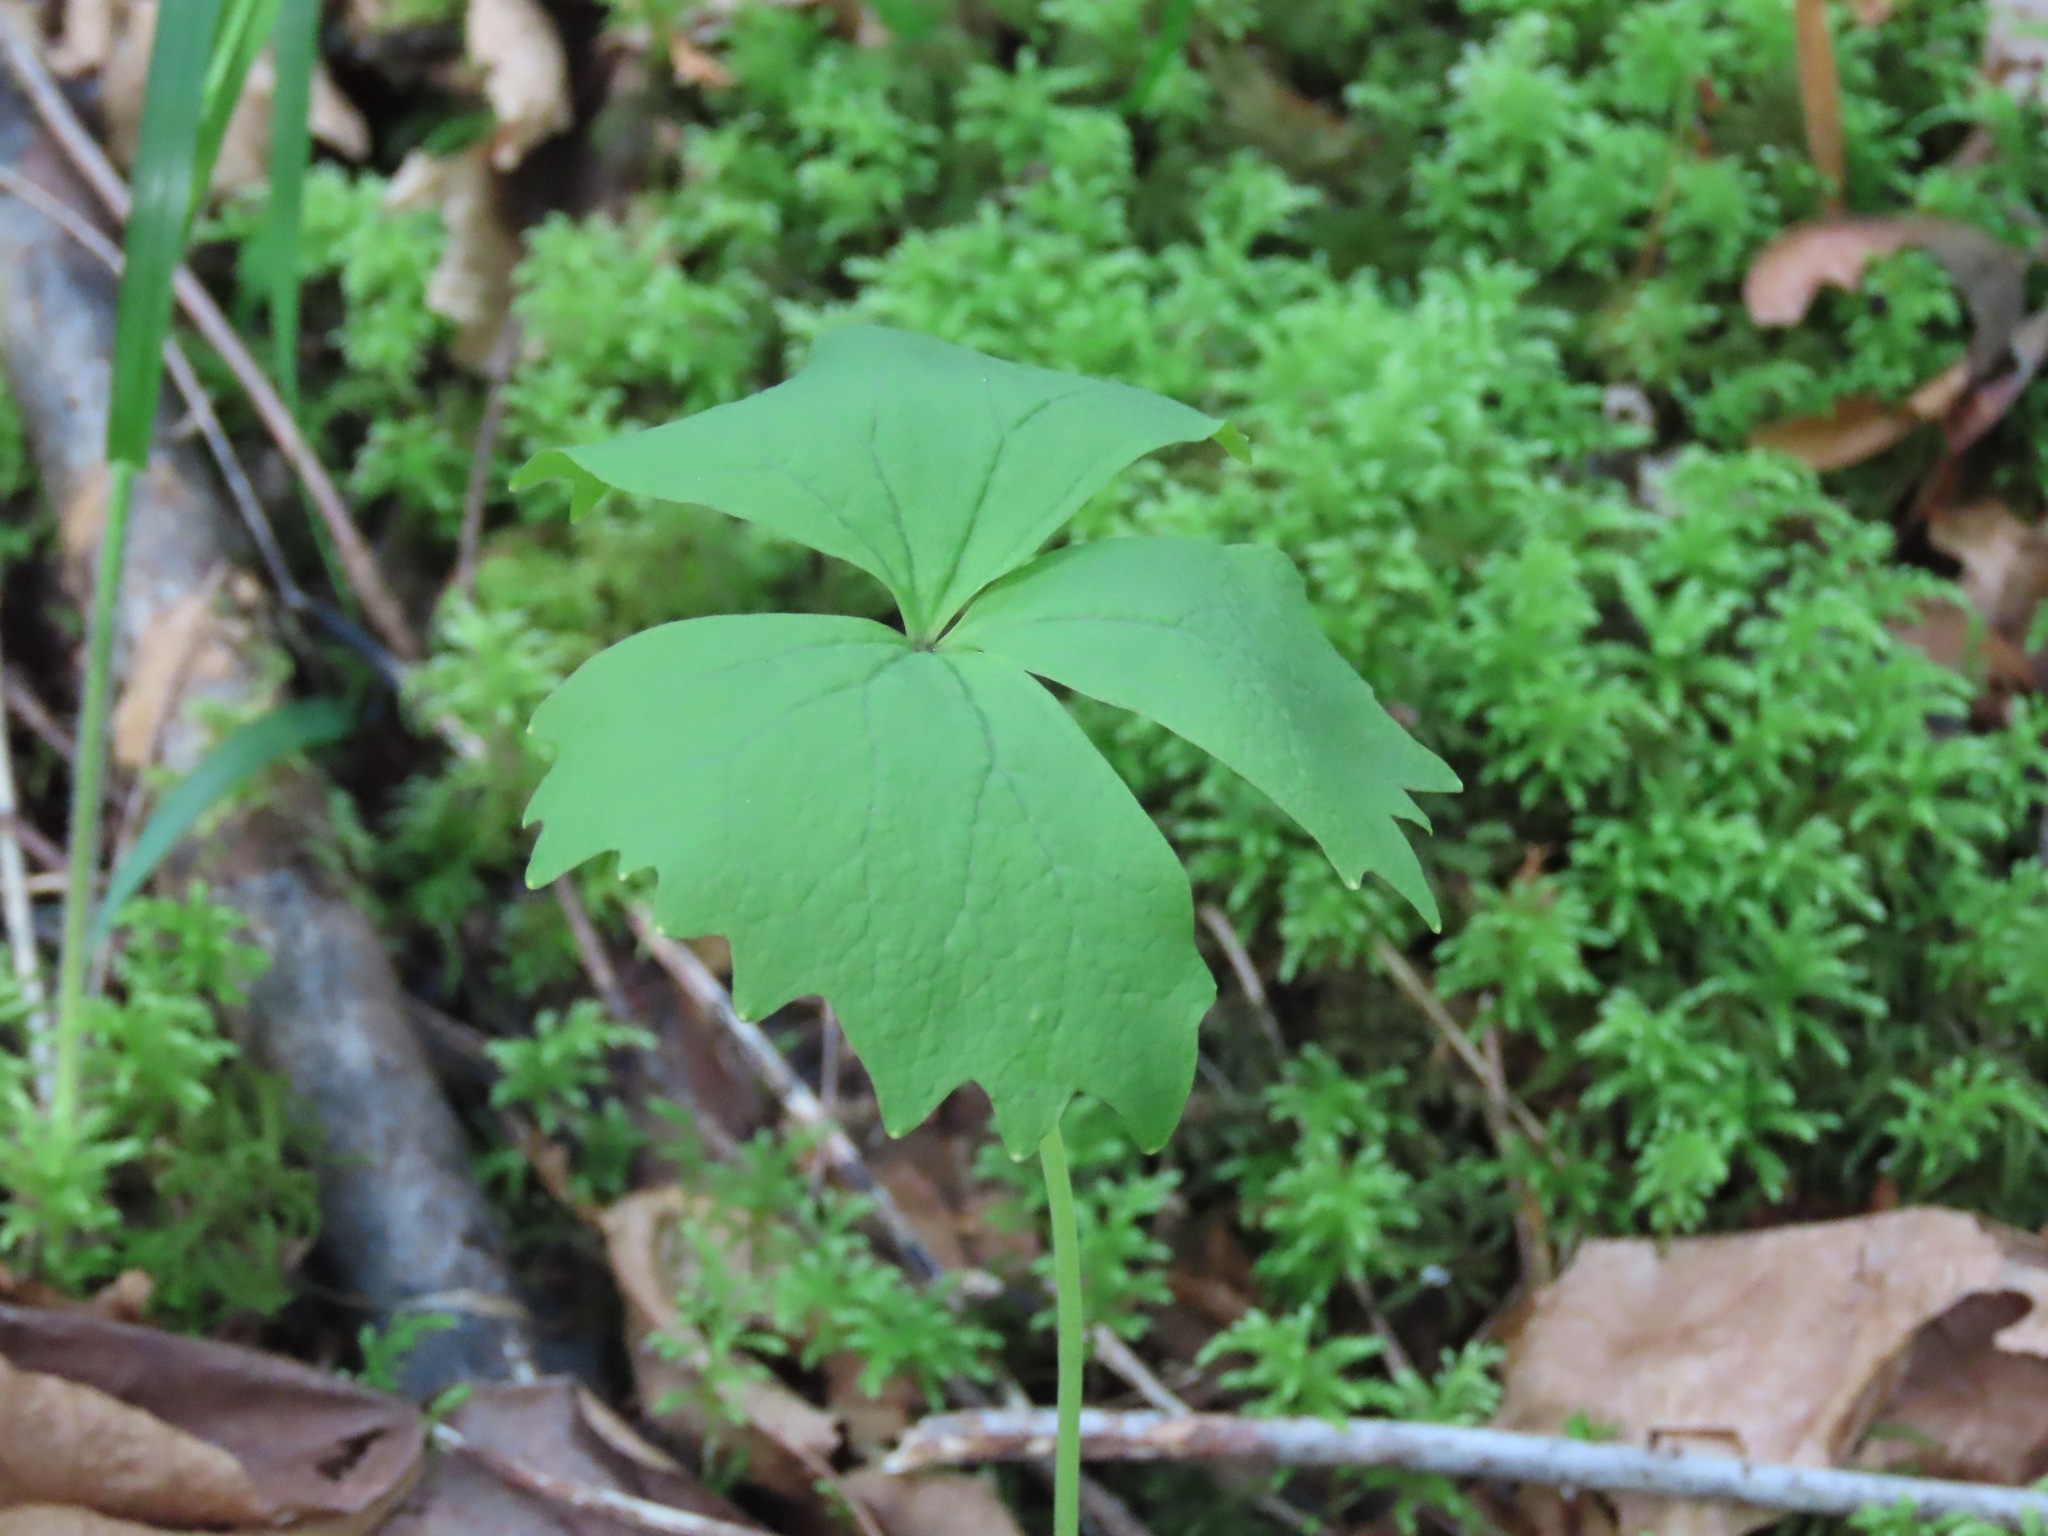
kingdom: Plantae
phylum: Tracheophyta
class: Magnoliopsida
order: Ranunculales
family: Berberidaceae
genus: Achlys
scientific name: Achlys triphylla
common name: Vanilla-leaf
